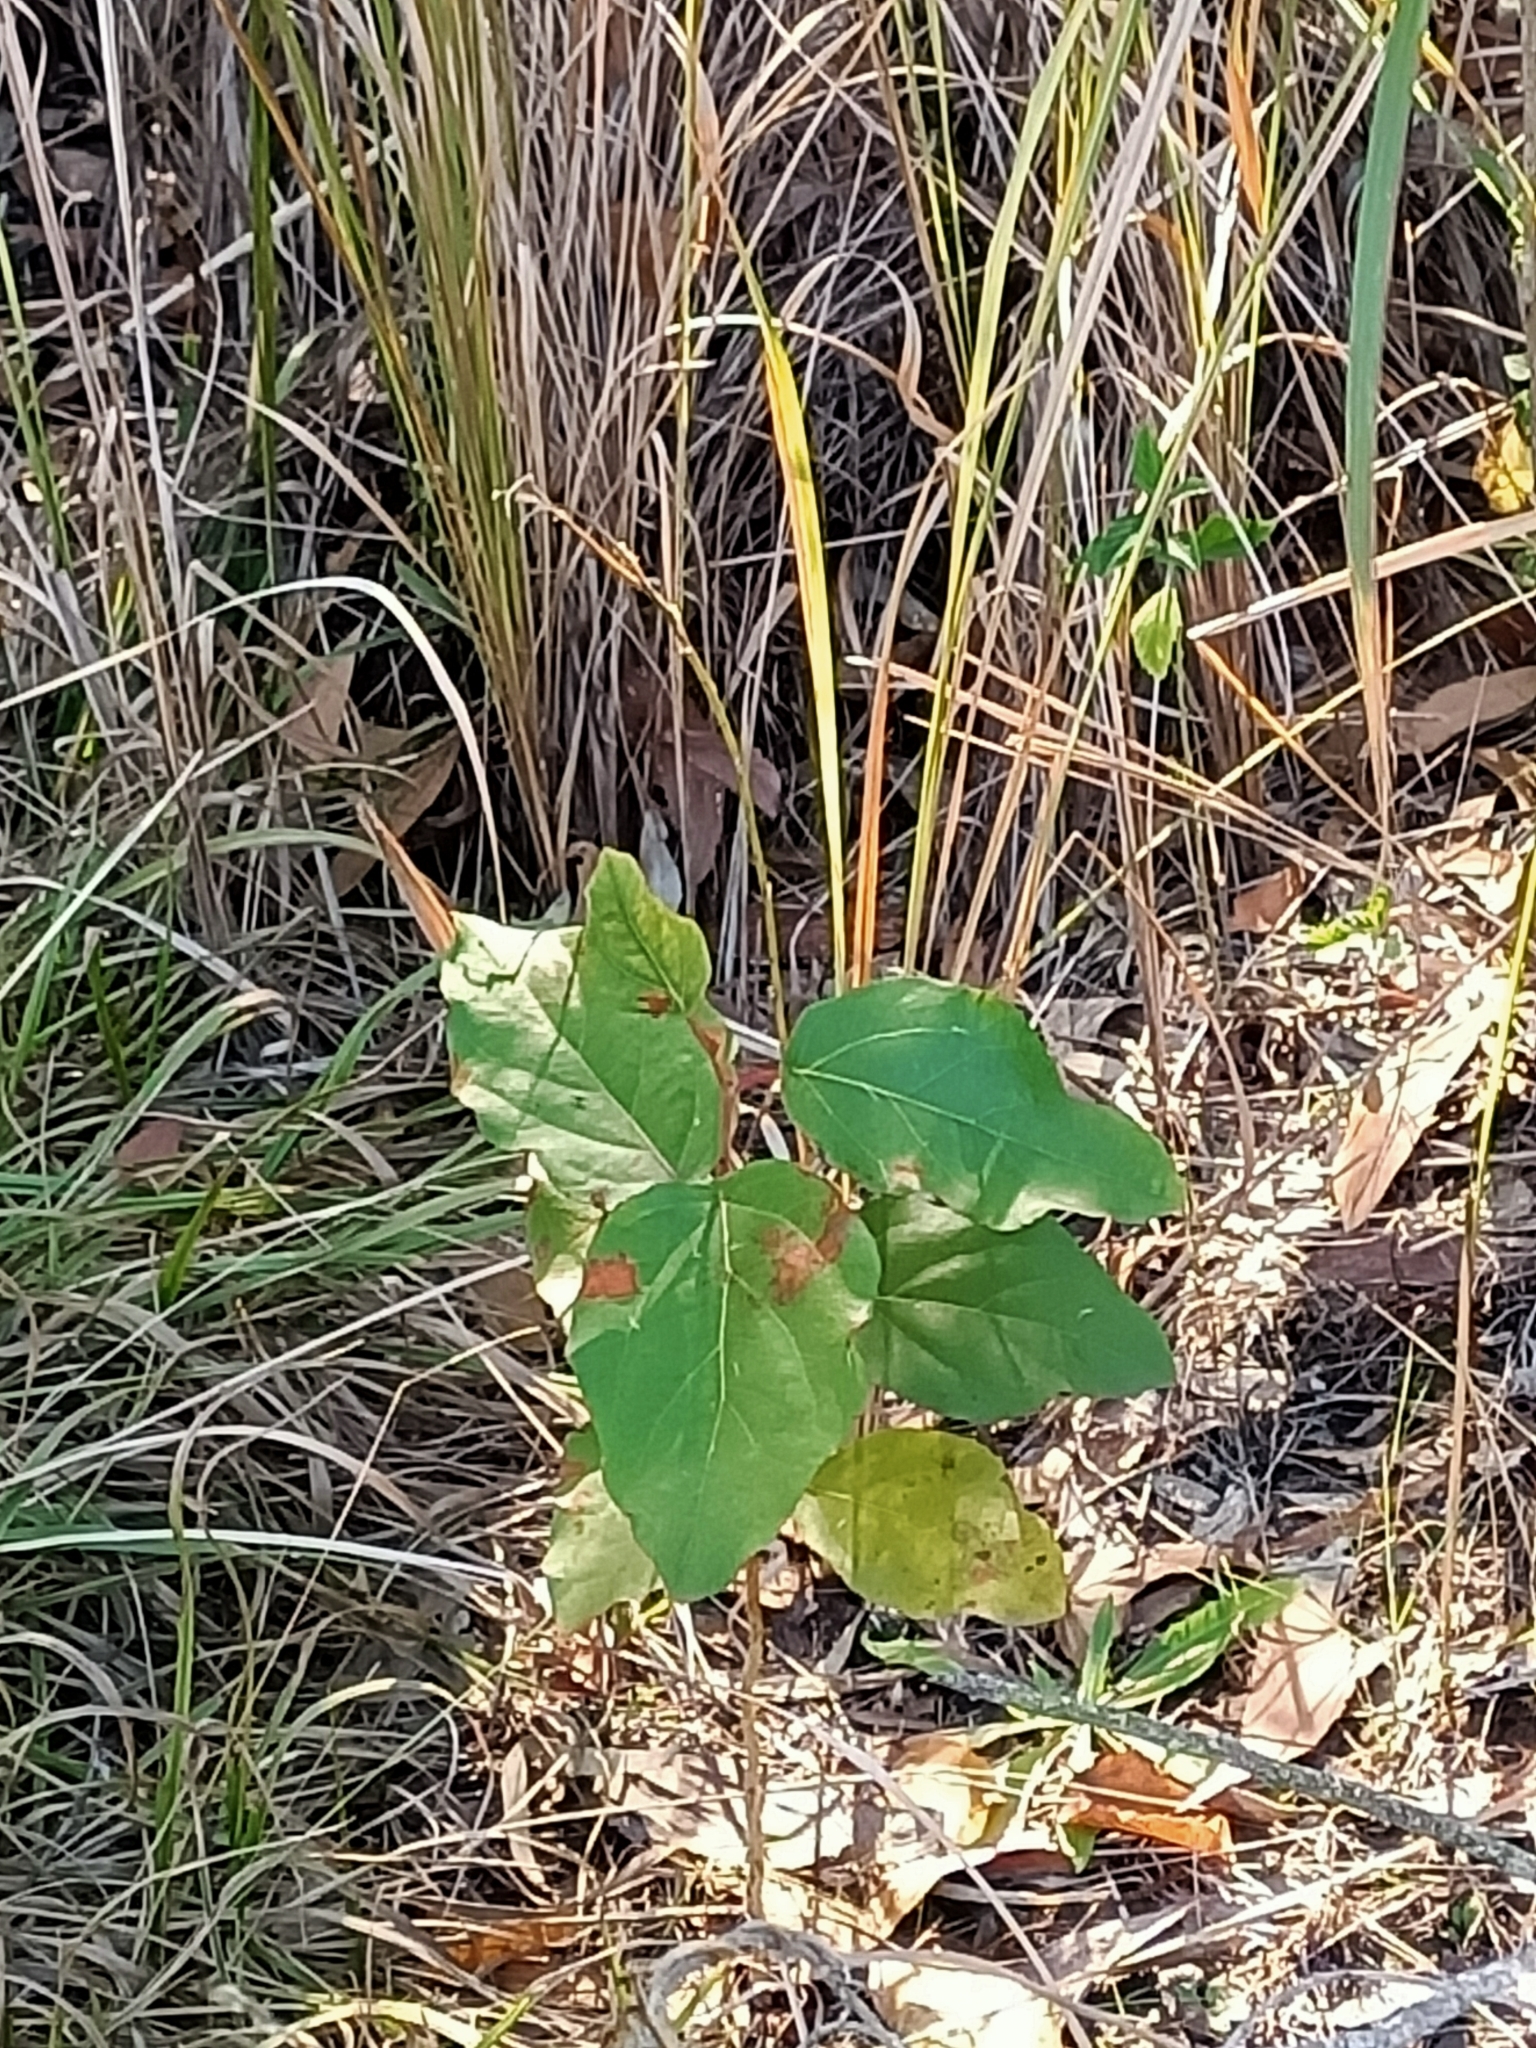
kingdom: Plantae
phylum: Tracheophyta
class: Magnoliopsida
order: Myrtales
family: Myrtaceae
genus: Corymbia
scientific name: Corymbia torelliana
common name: Cadaghi
